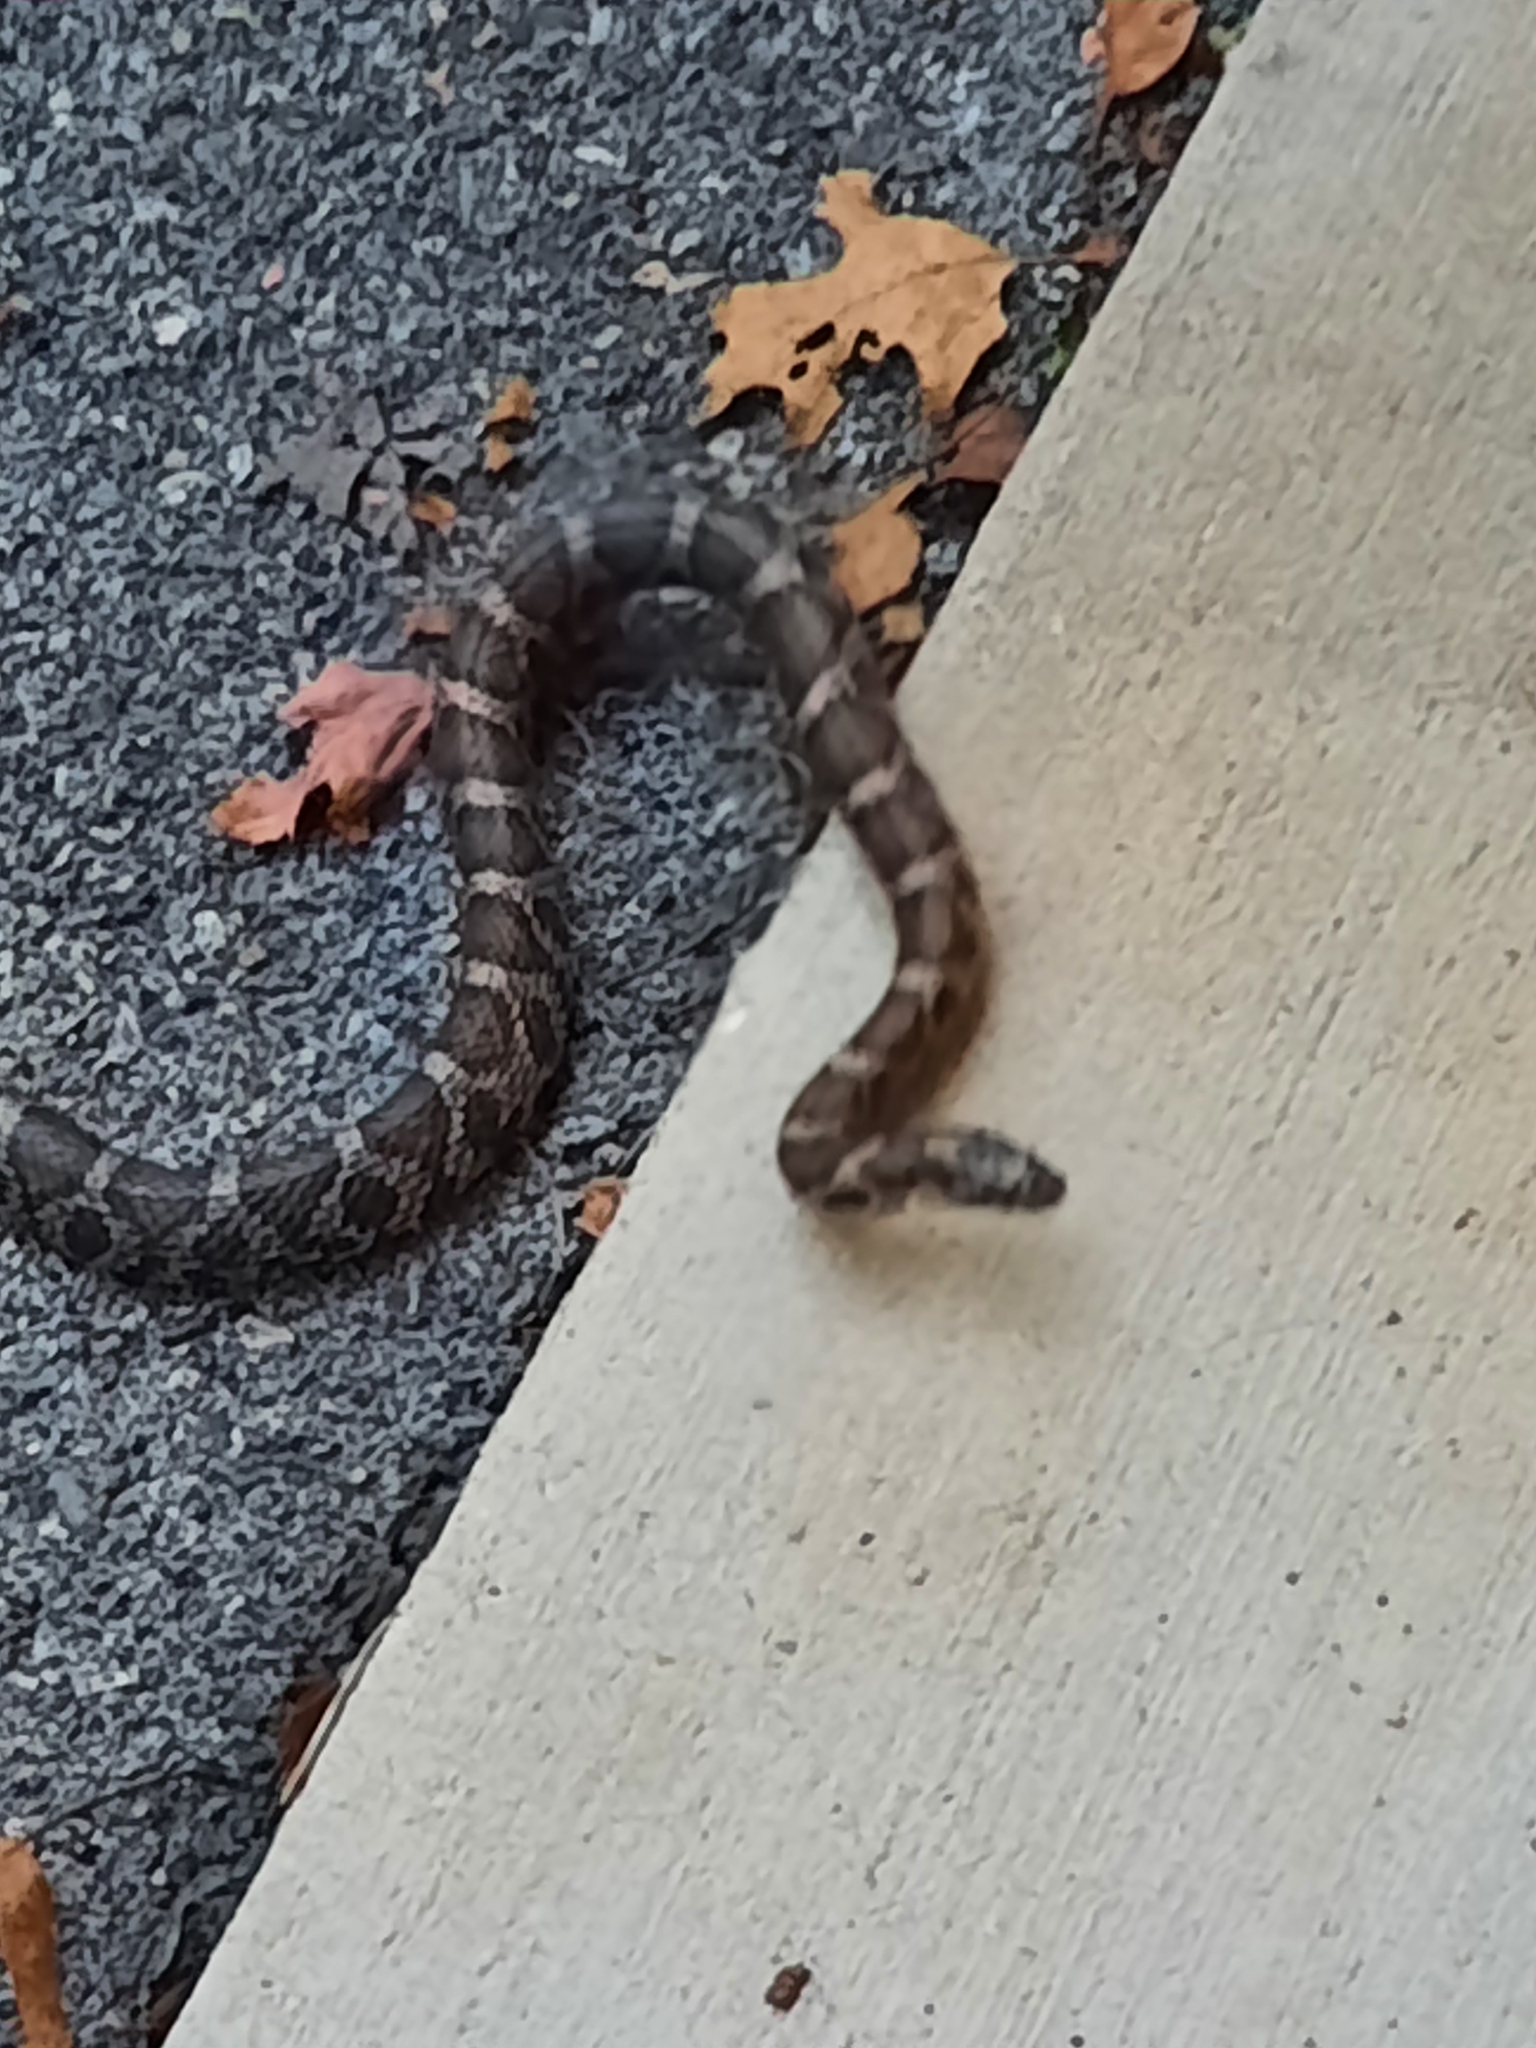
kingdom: Animalia
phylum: Chordata
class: Squamata
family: Colubridae
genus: Lampropeltis
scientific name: Lampropeltis triangulum
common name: Eastern milksnake
